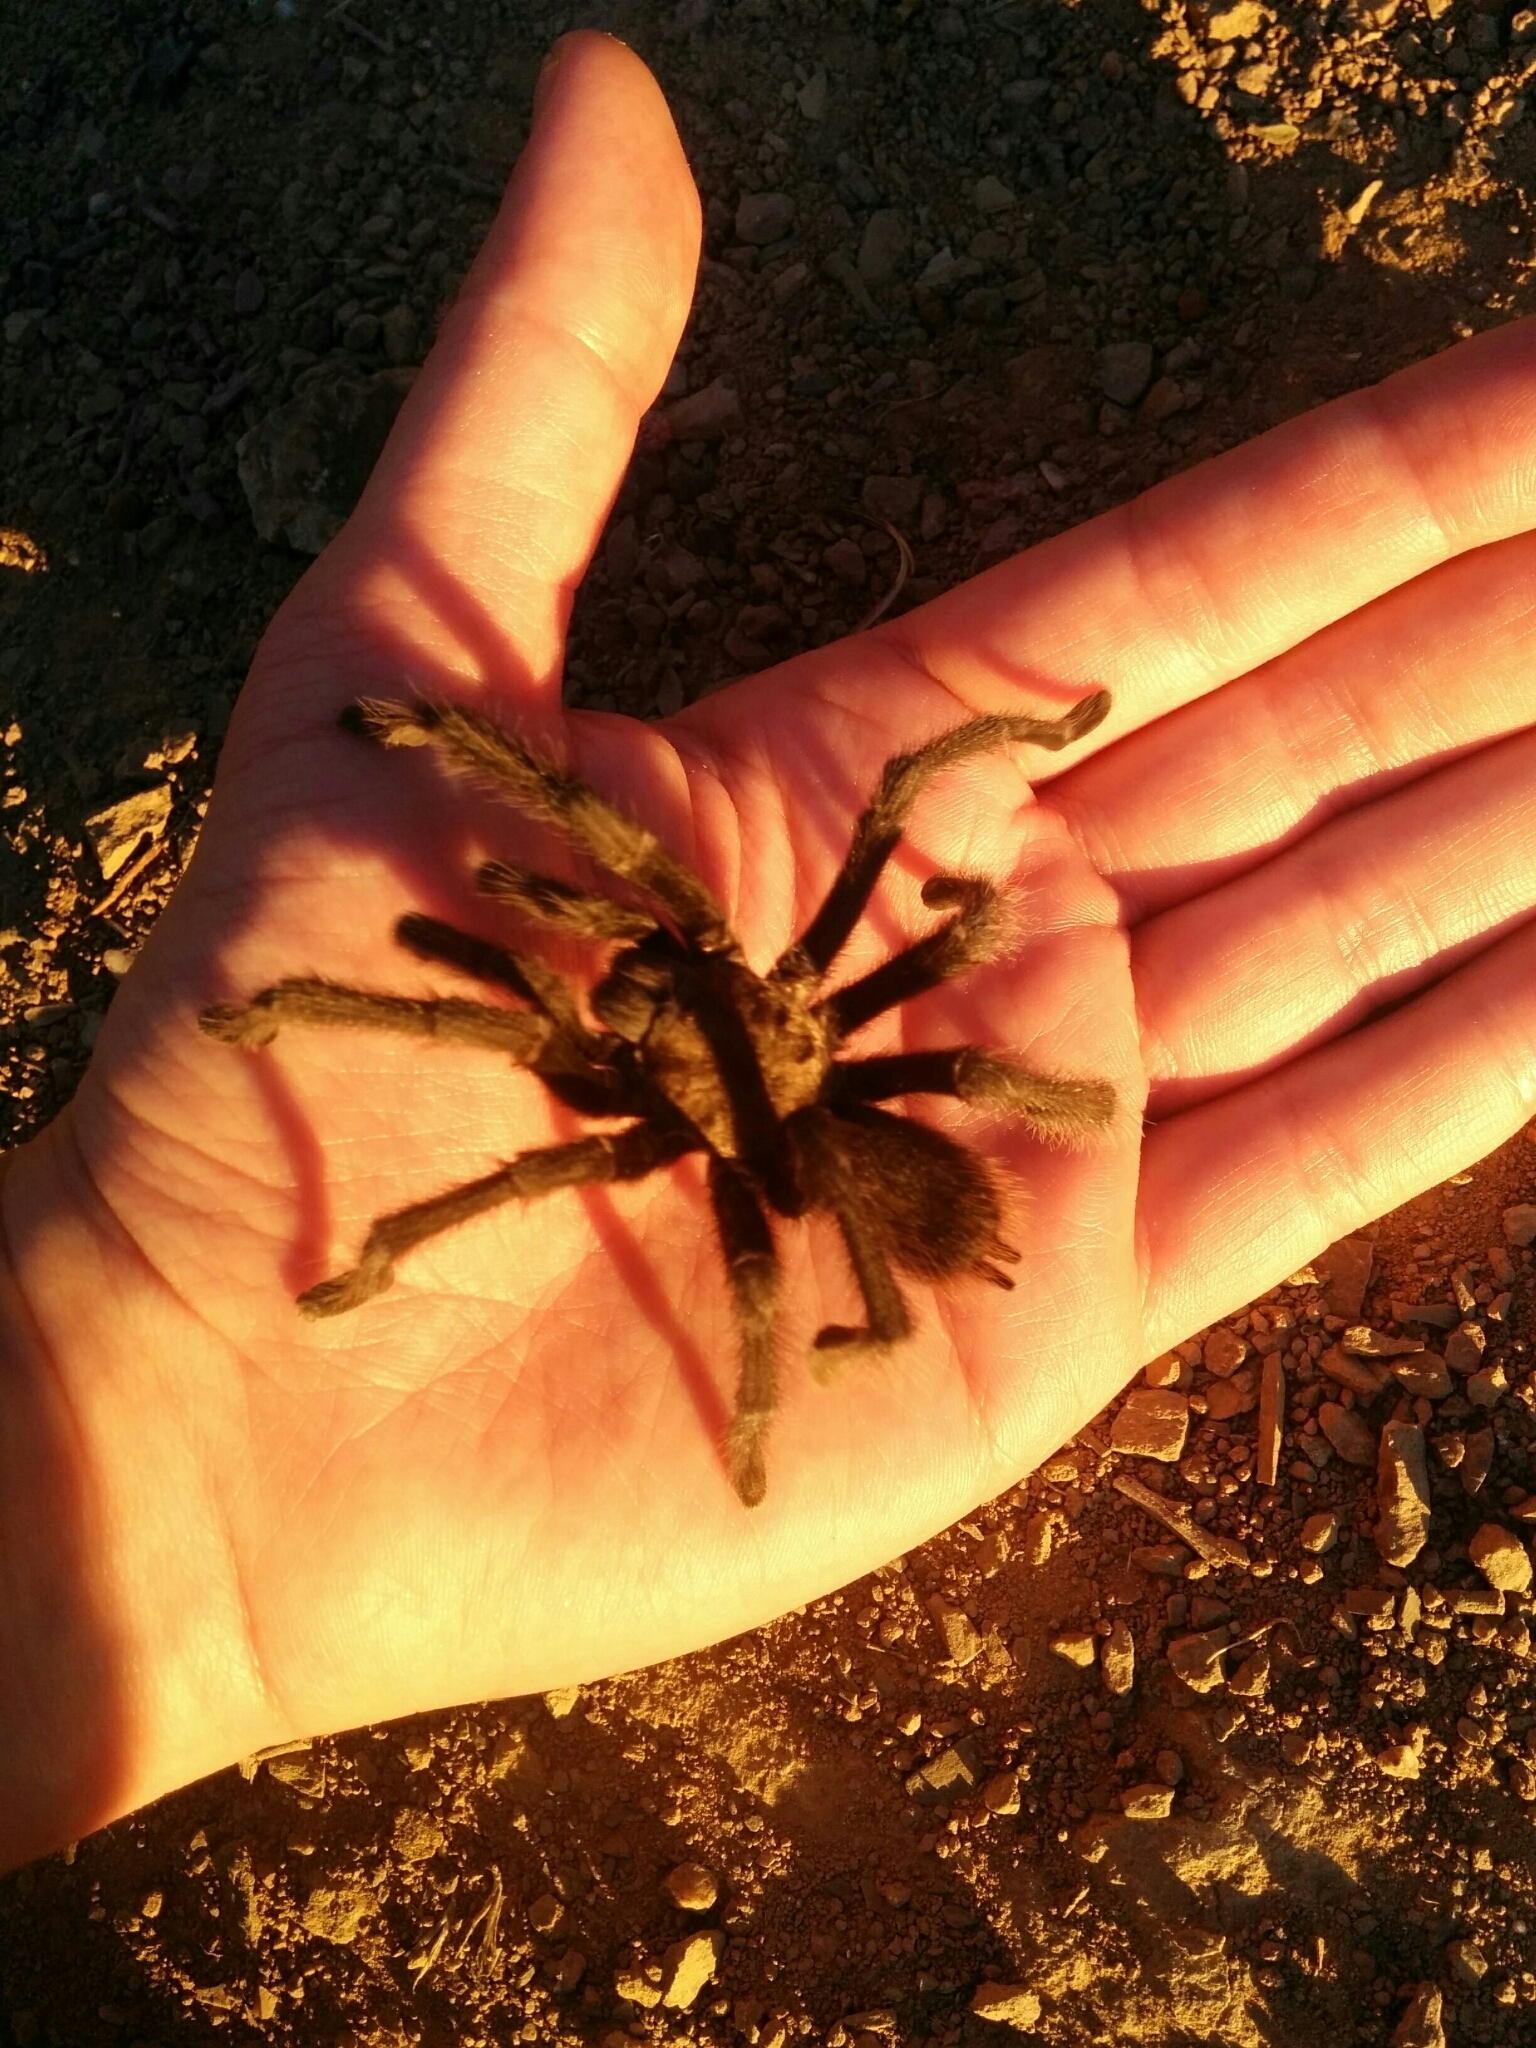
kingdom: Animalia
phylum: Arthropoda
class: Arachnida
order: Araneae
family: Theraphosidae
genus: Aphonopelma
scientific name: Aphonopelma iodius
